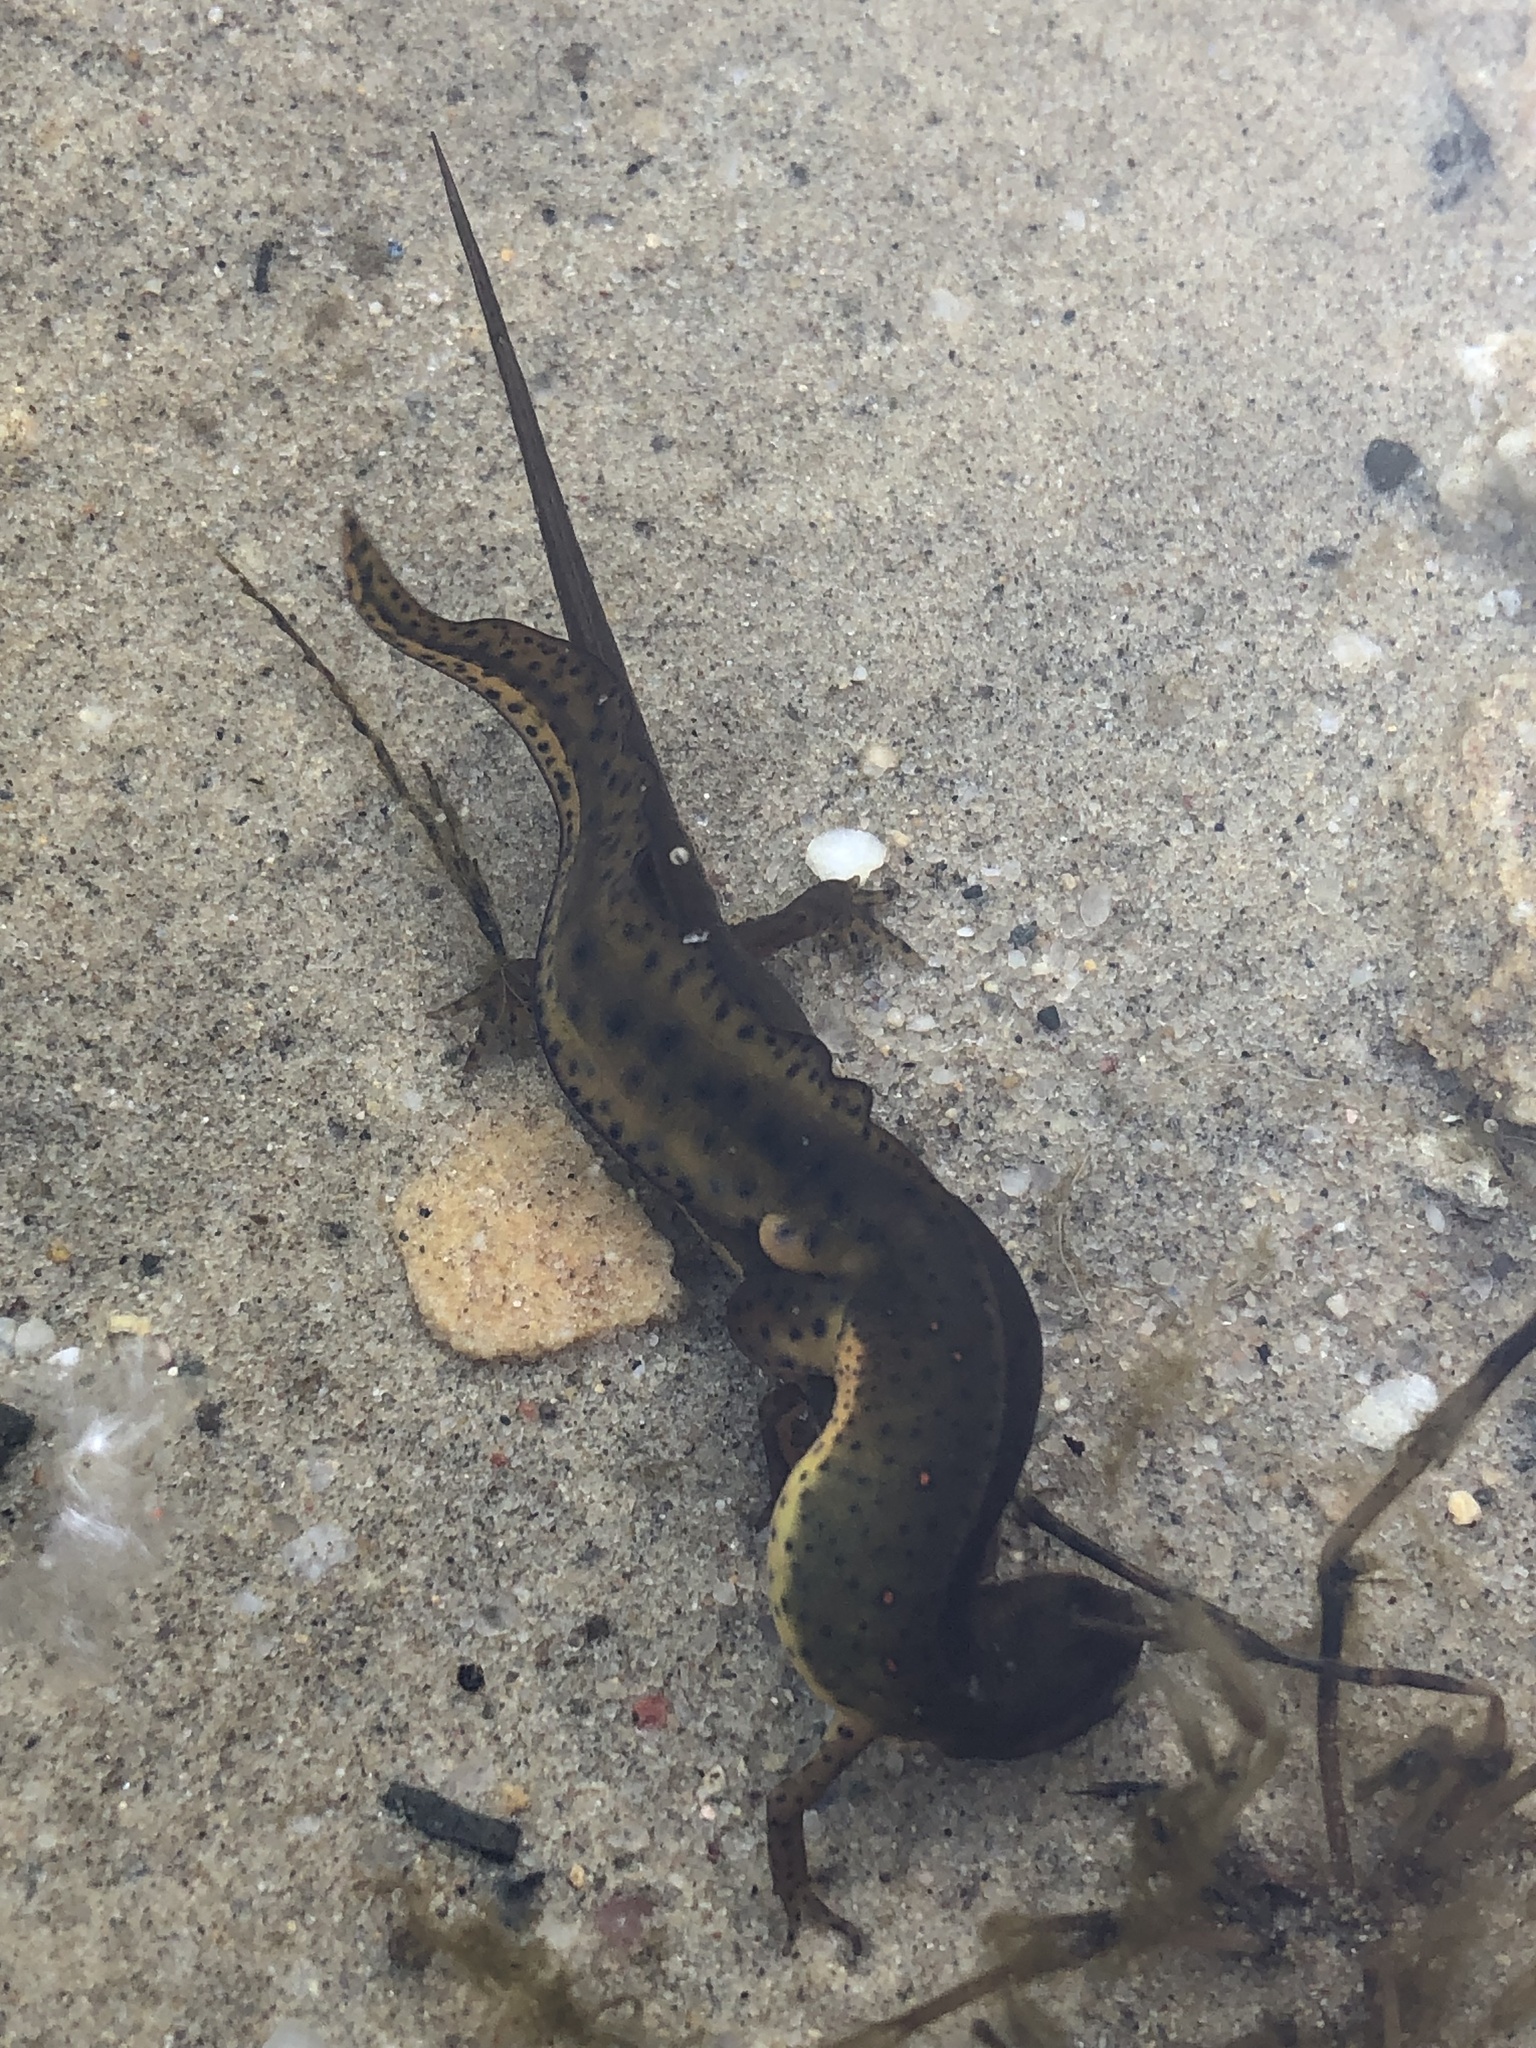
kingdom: Animalia
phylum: Chordata
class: Amphibia
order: Caudata
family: Salamandridae
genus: Notophthalmus
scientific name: Notophthalmus viridescens
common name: Eastern newt
